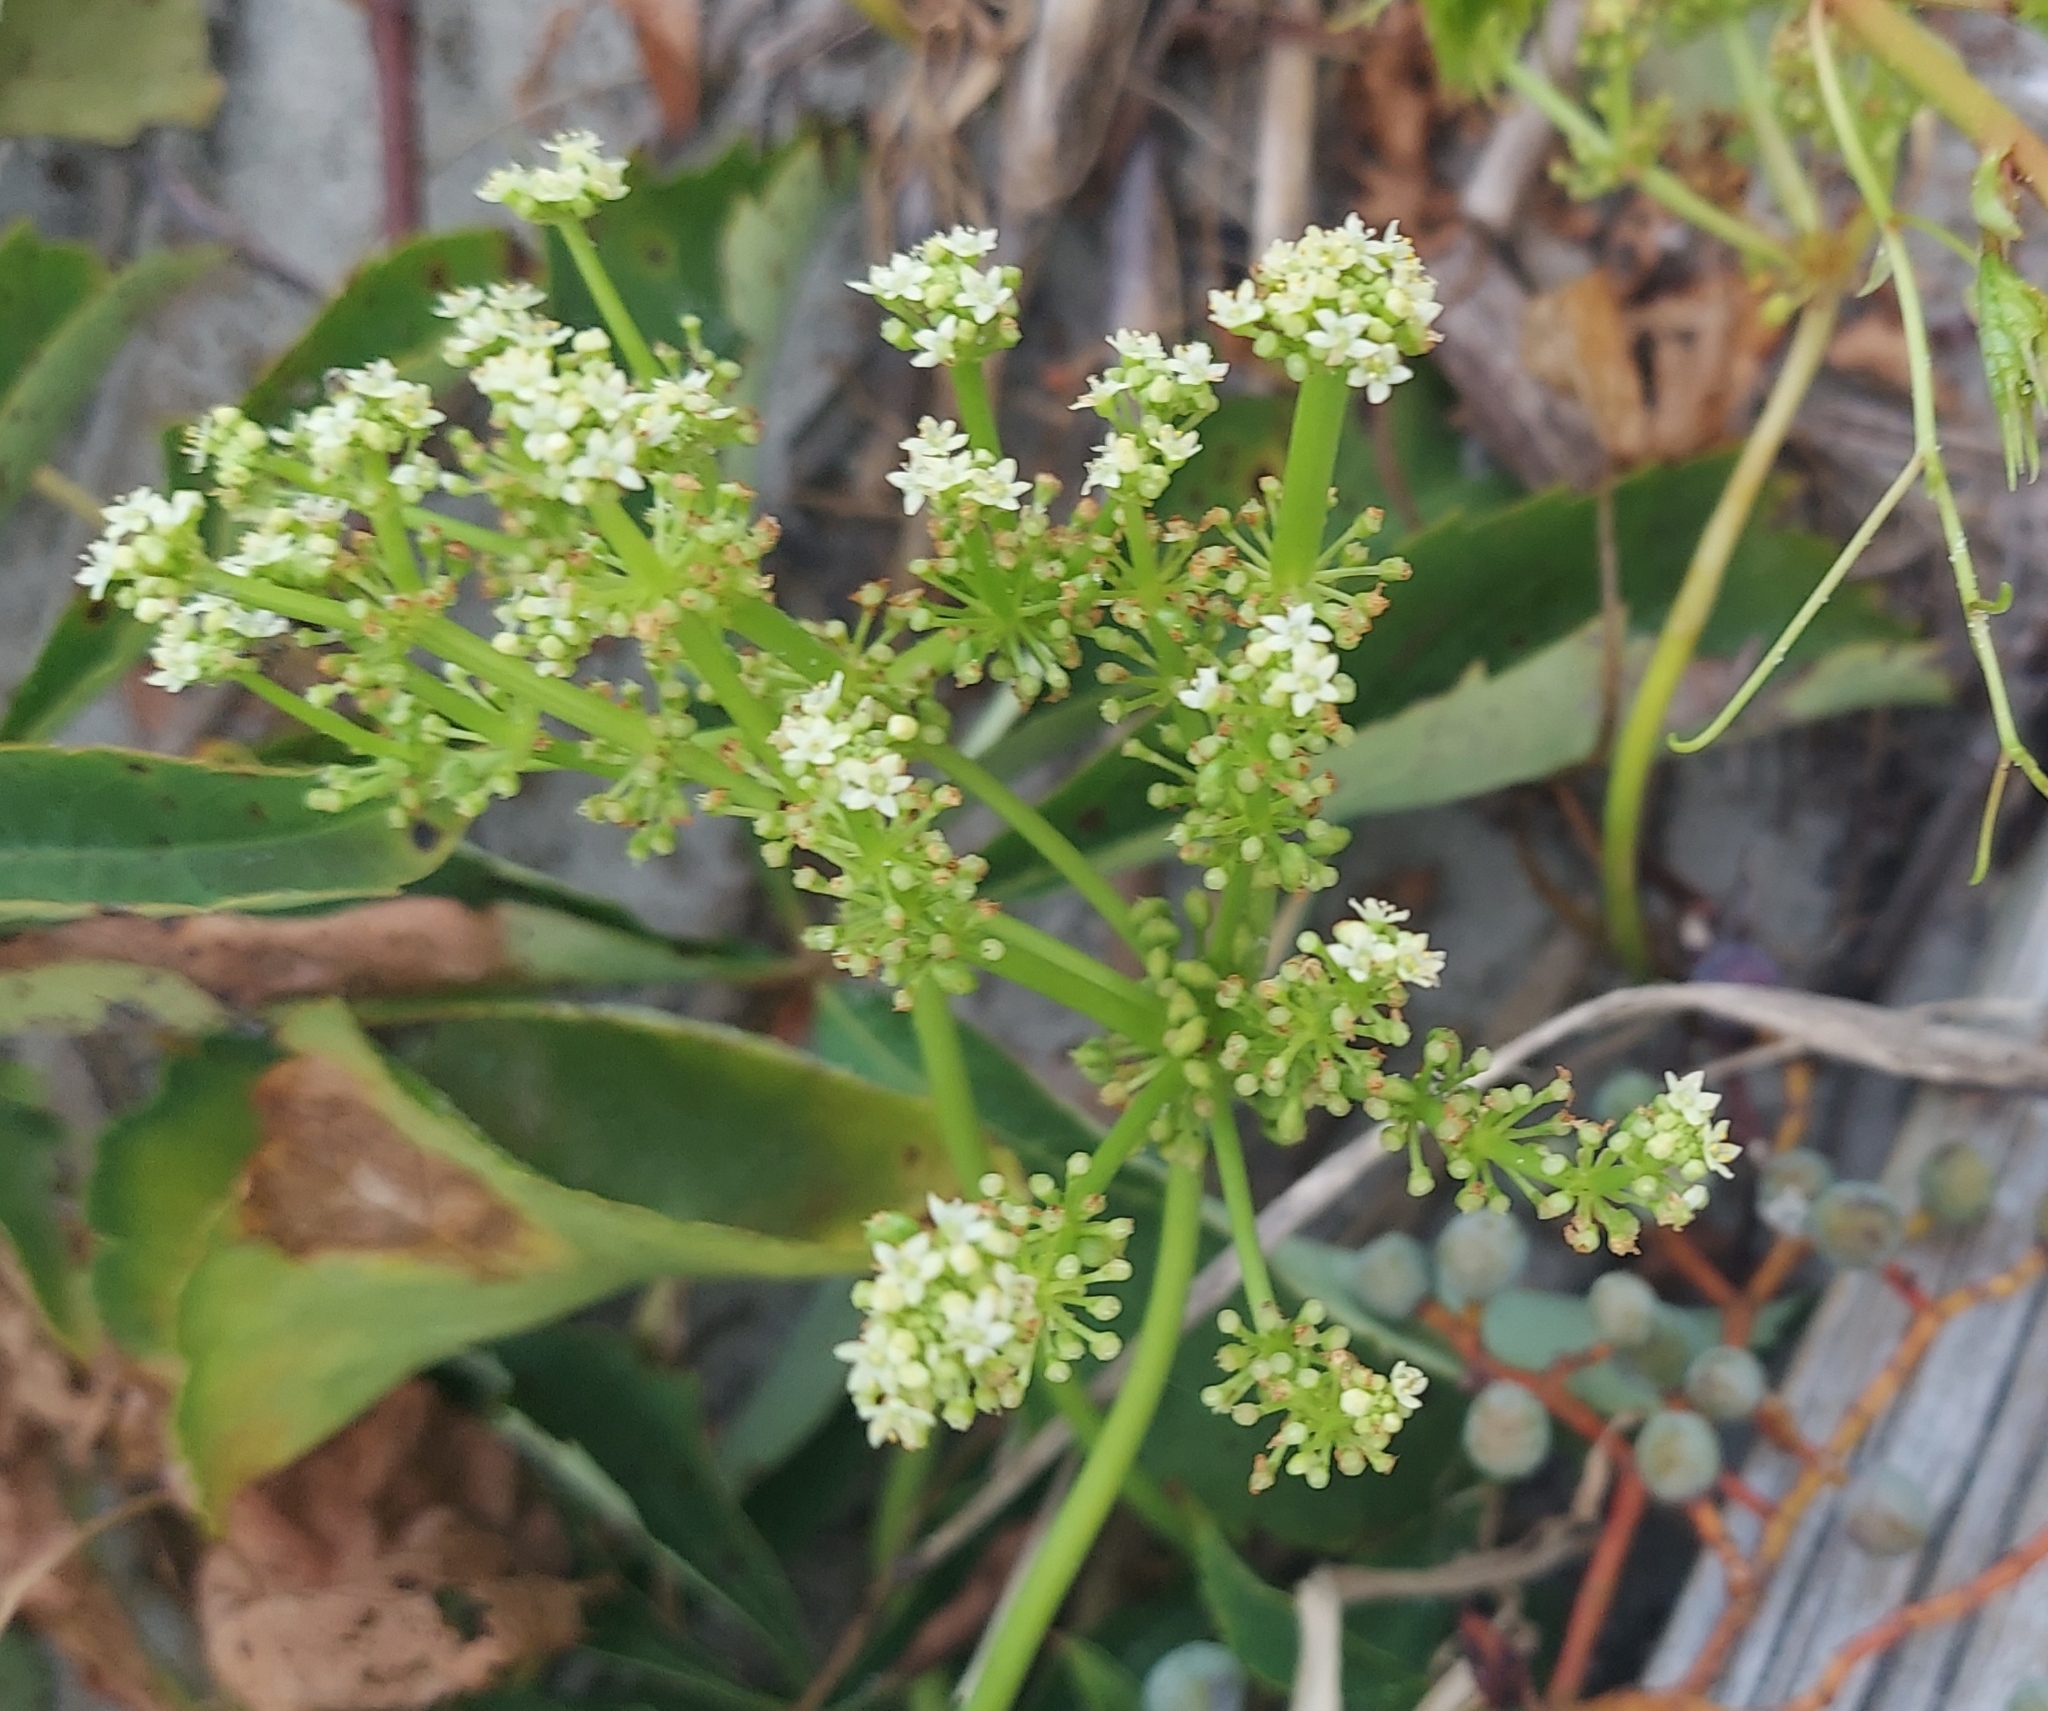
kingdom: Plantae
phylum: Tracheophyta
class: Magnoliopsida
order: Apiales
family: Araliaceae
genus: Hydrocotyle
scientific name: Hydrocotyle bonariensis
